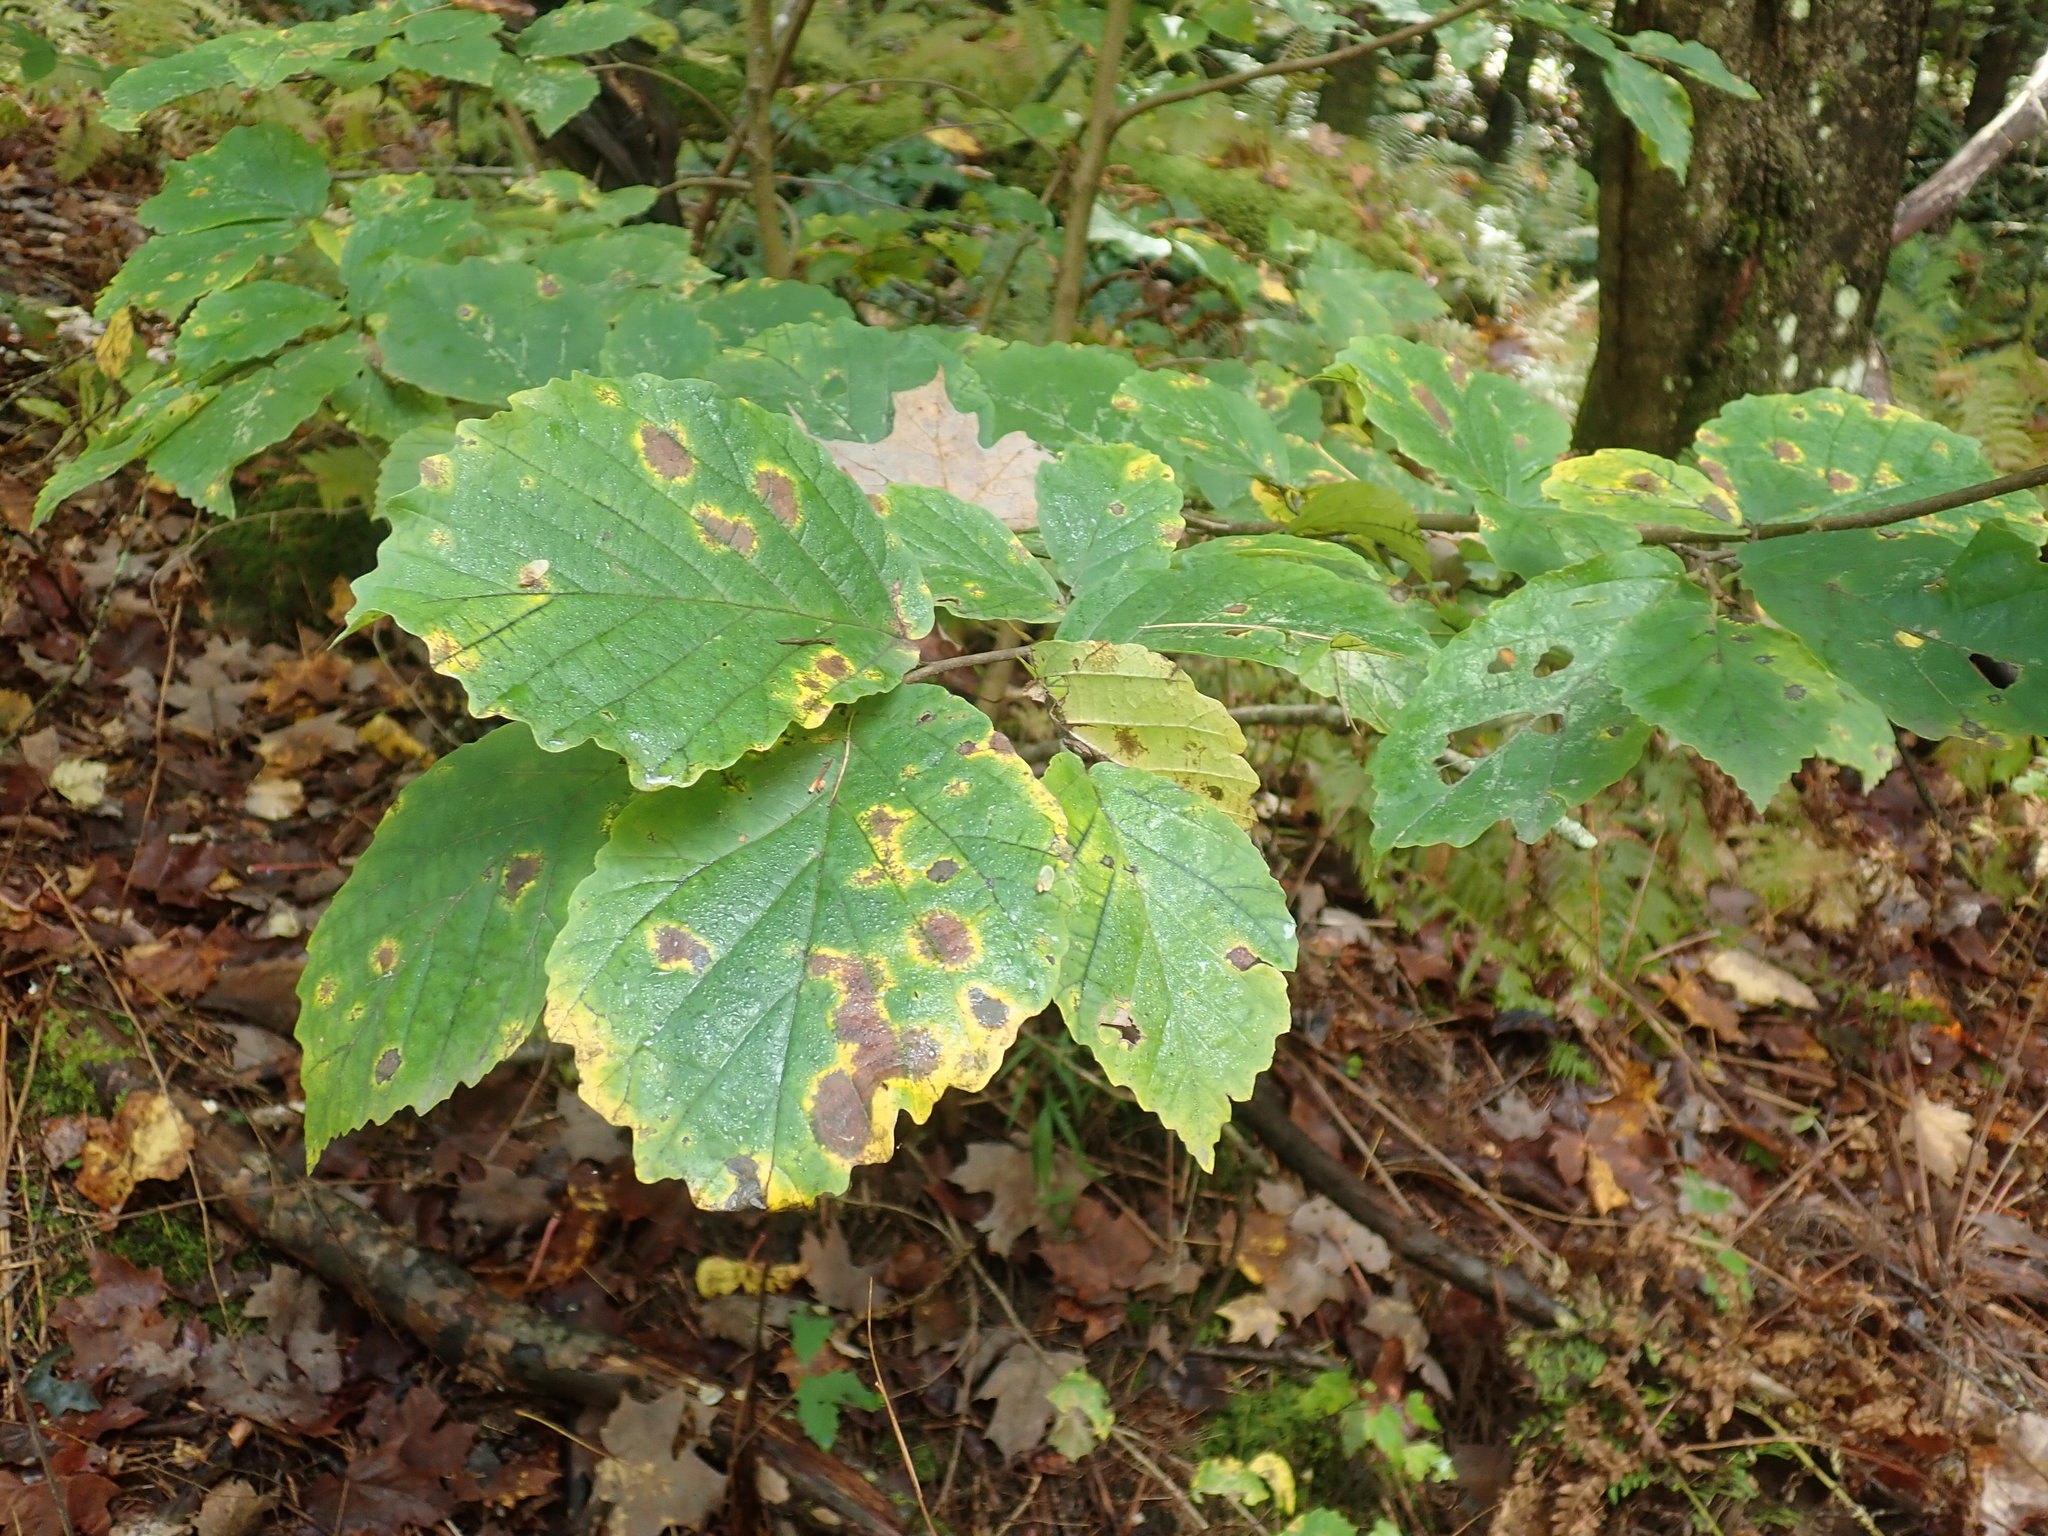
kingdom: Plantae
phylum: Tracheophyta
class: Magnoliopsida
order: Saxifragales
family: Hamamelidaceae
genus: Hamamelis
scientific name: Hamamelis virginiana
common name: Witch-hazel
